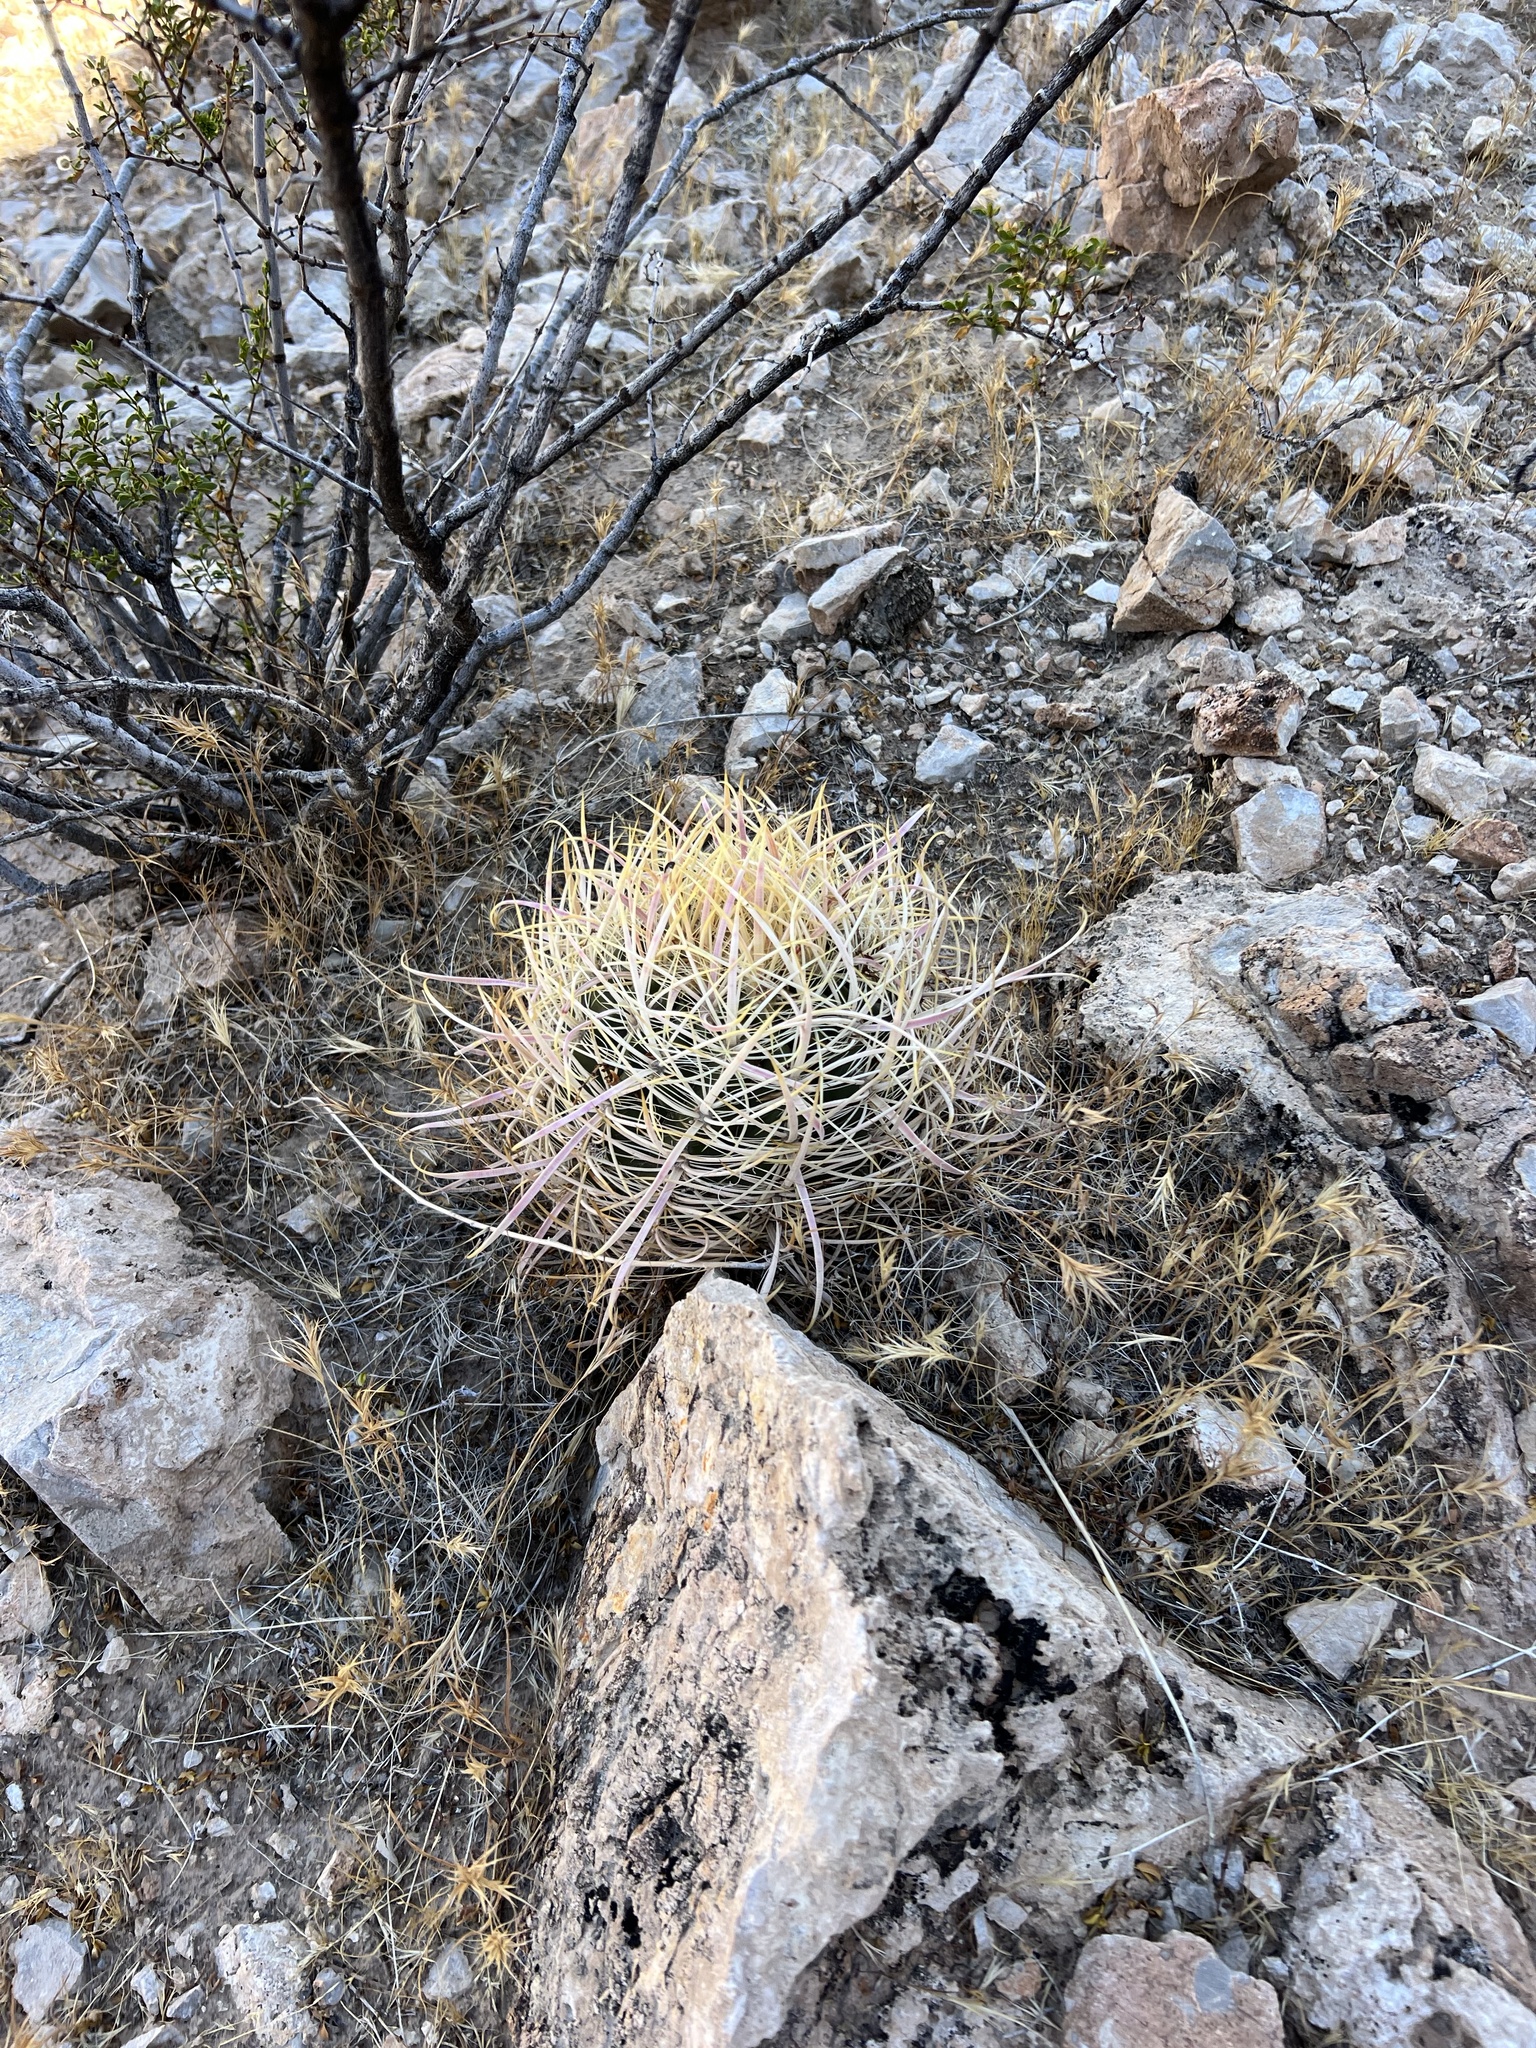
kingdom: Plantae
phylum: Tracheophyta
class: Magnoliopsida
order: Caryophyllales
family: Cactaceae
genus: Ferocactus
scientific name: Ferocactus cylindraceus
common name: California barrel cactus
